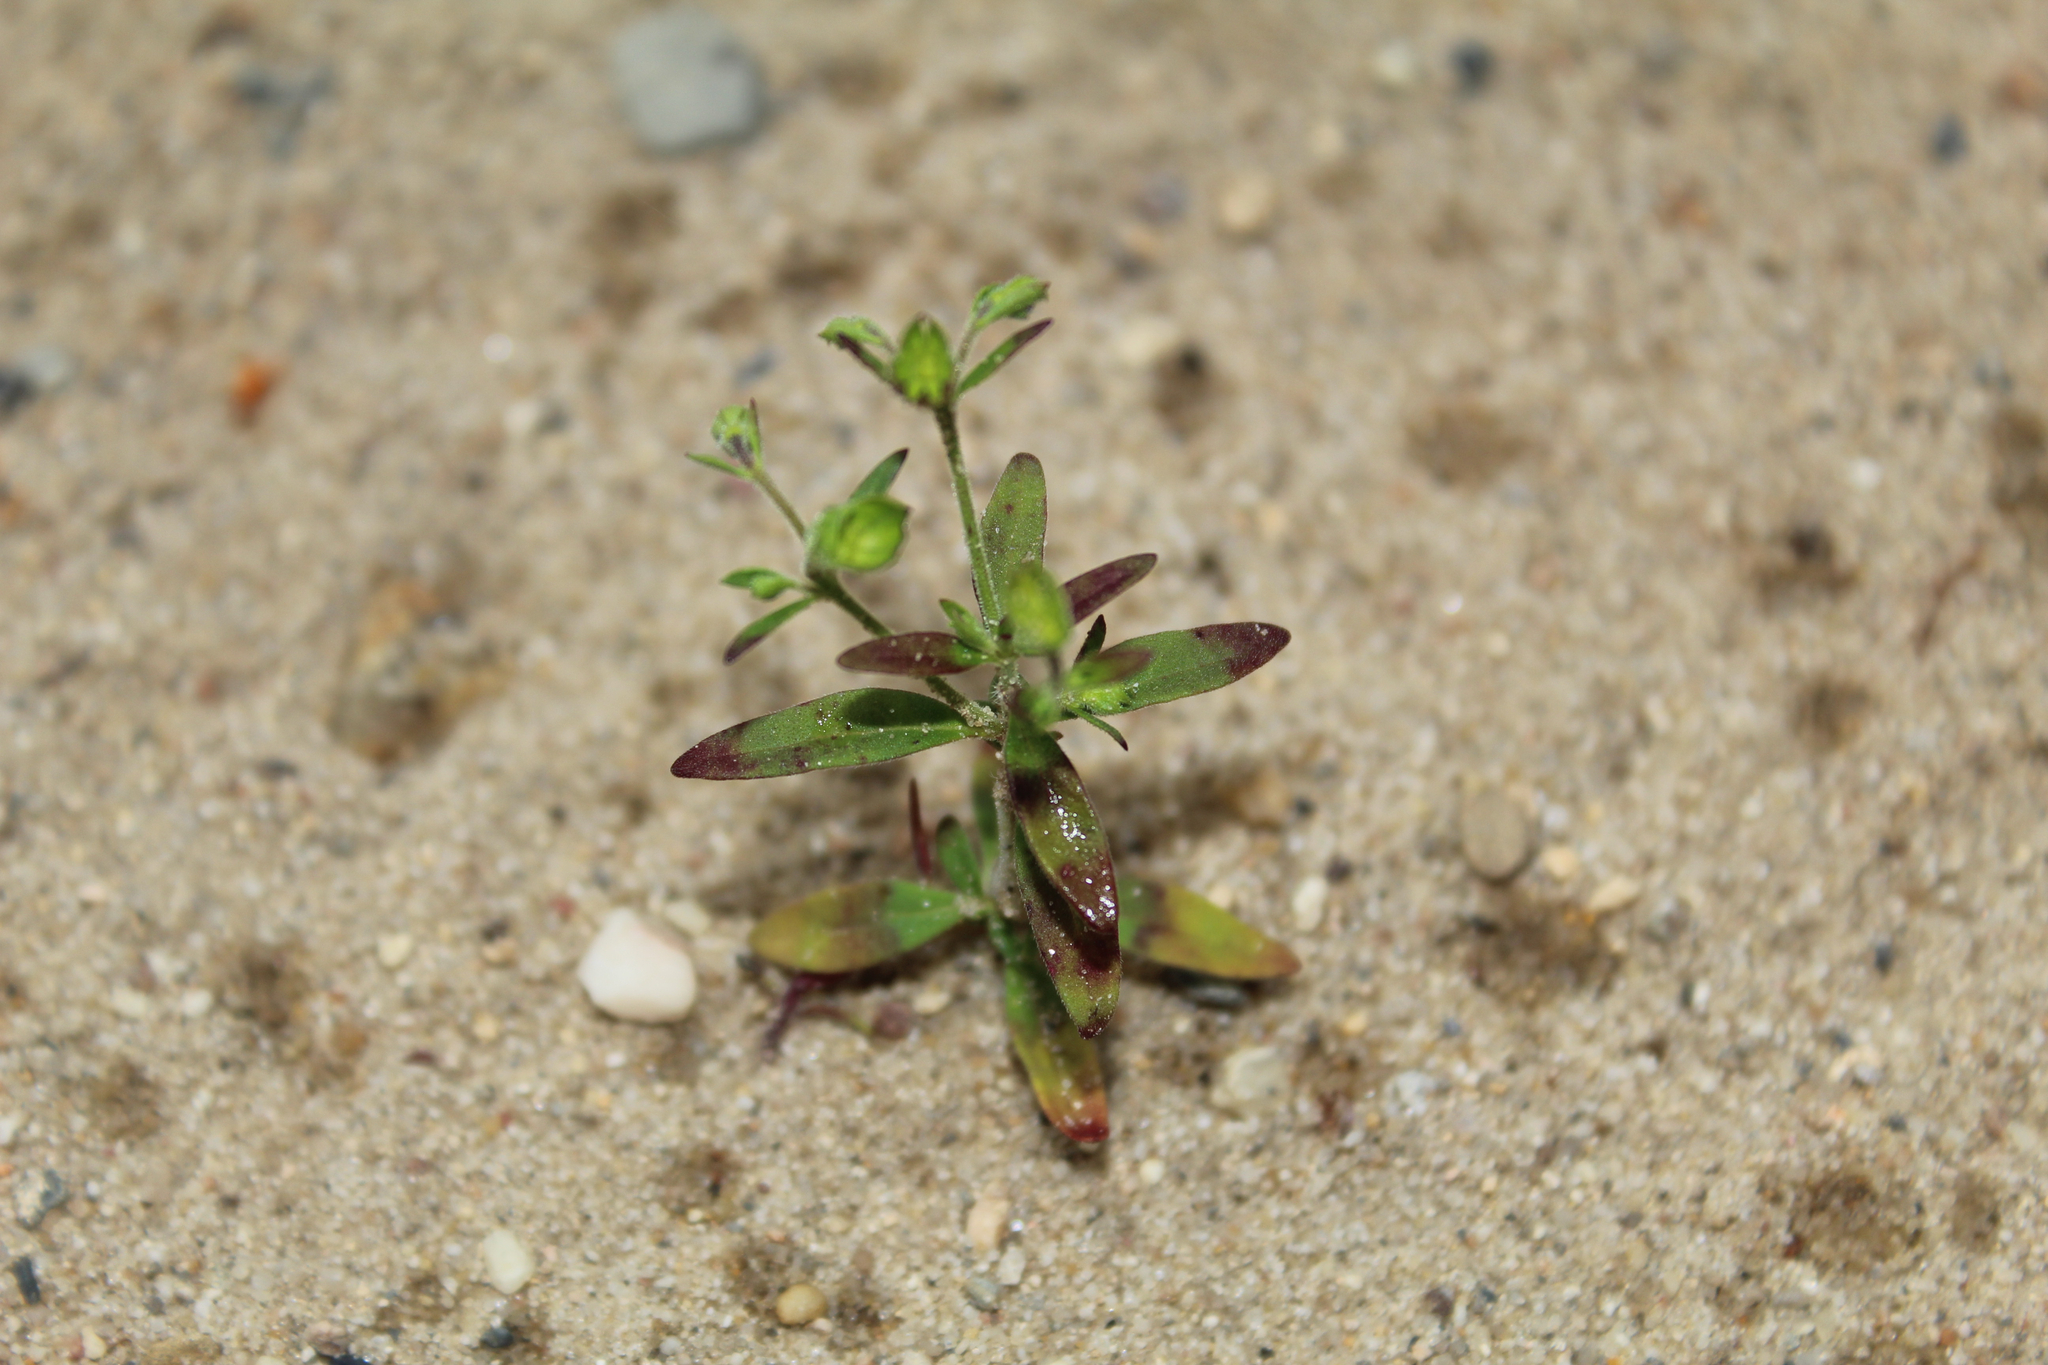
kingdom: Plantae
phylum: Tracheophyta
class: Magnoliopsida
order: Lamiales
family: Lamiaceae
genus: Trichostema
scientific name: Trichostema dichotomum
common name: Bastard pennyroyal
